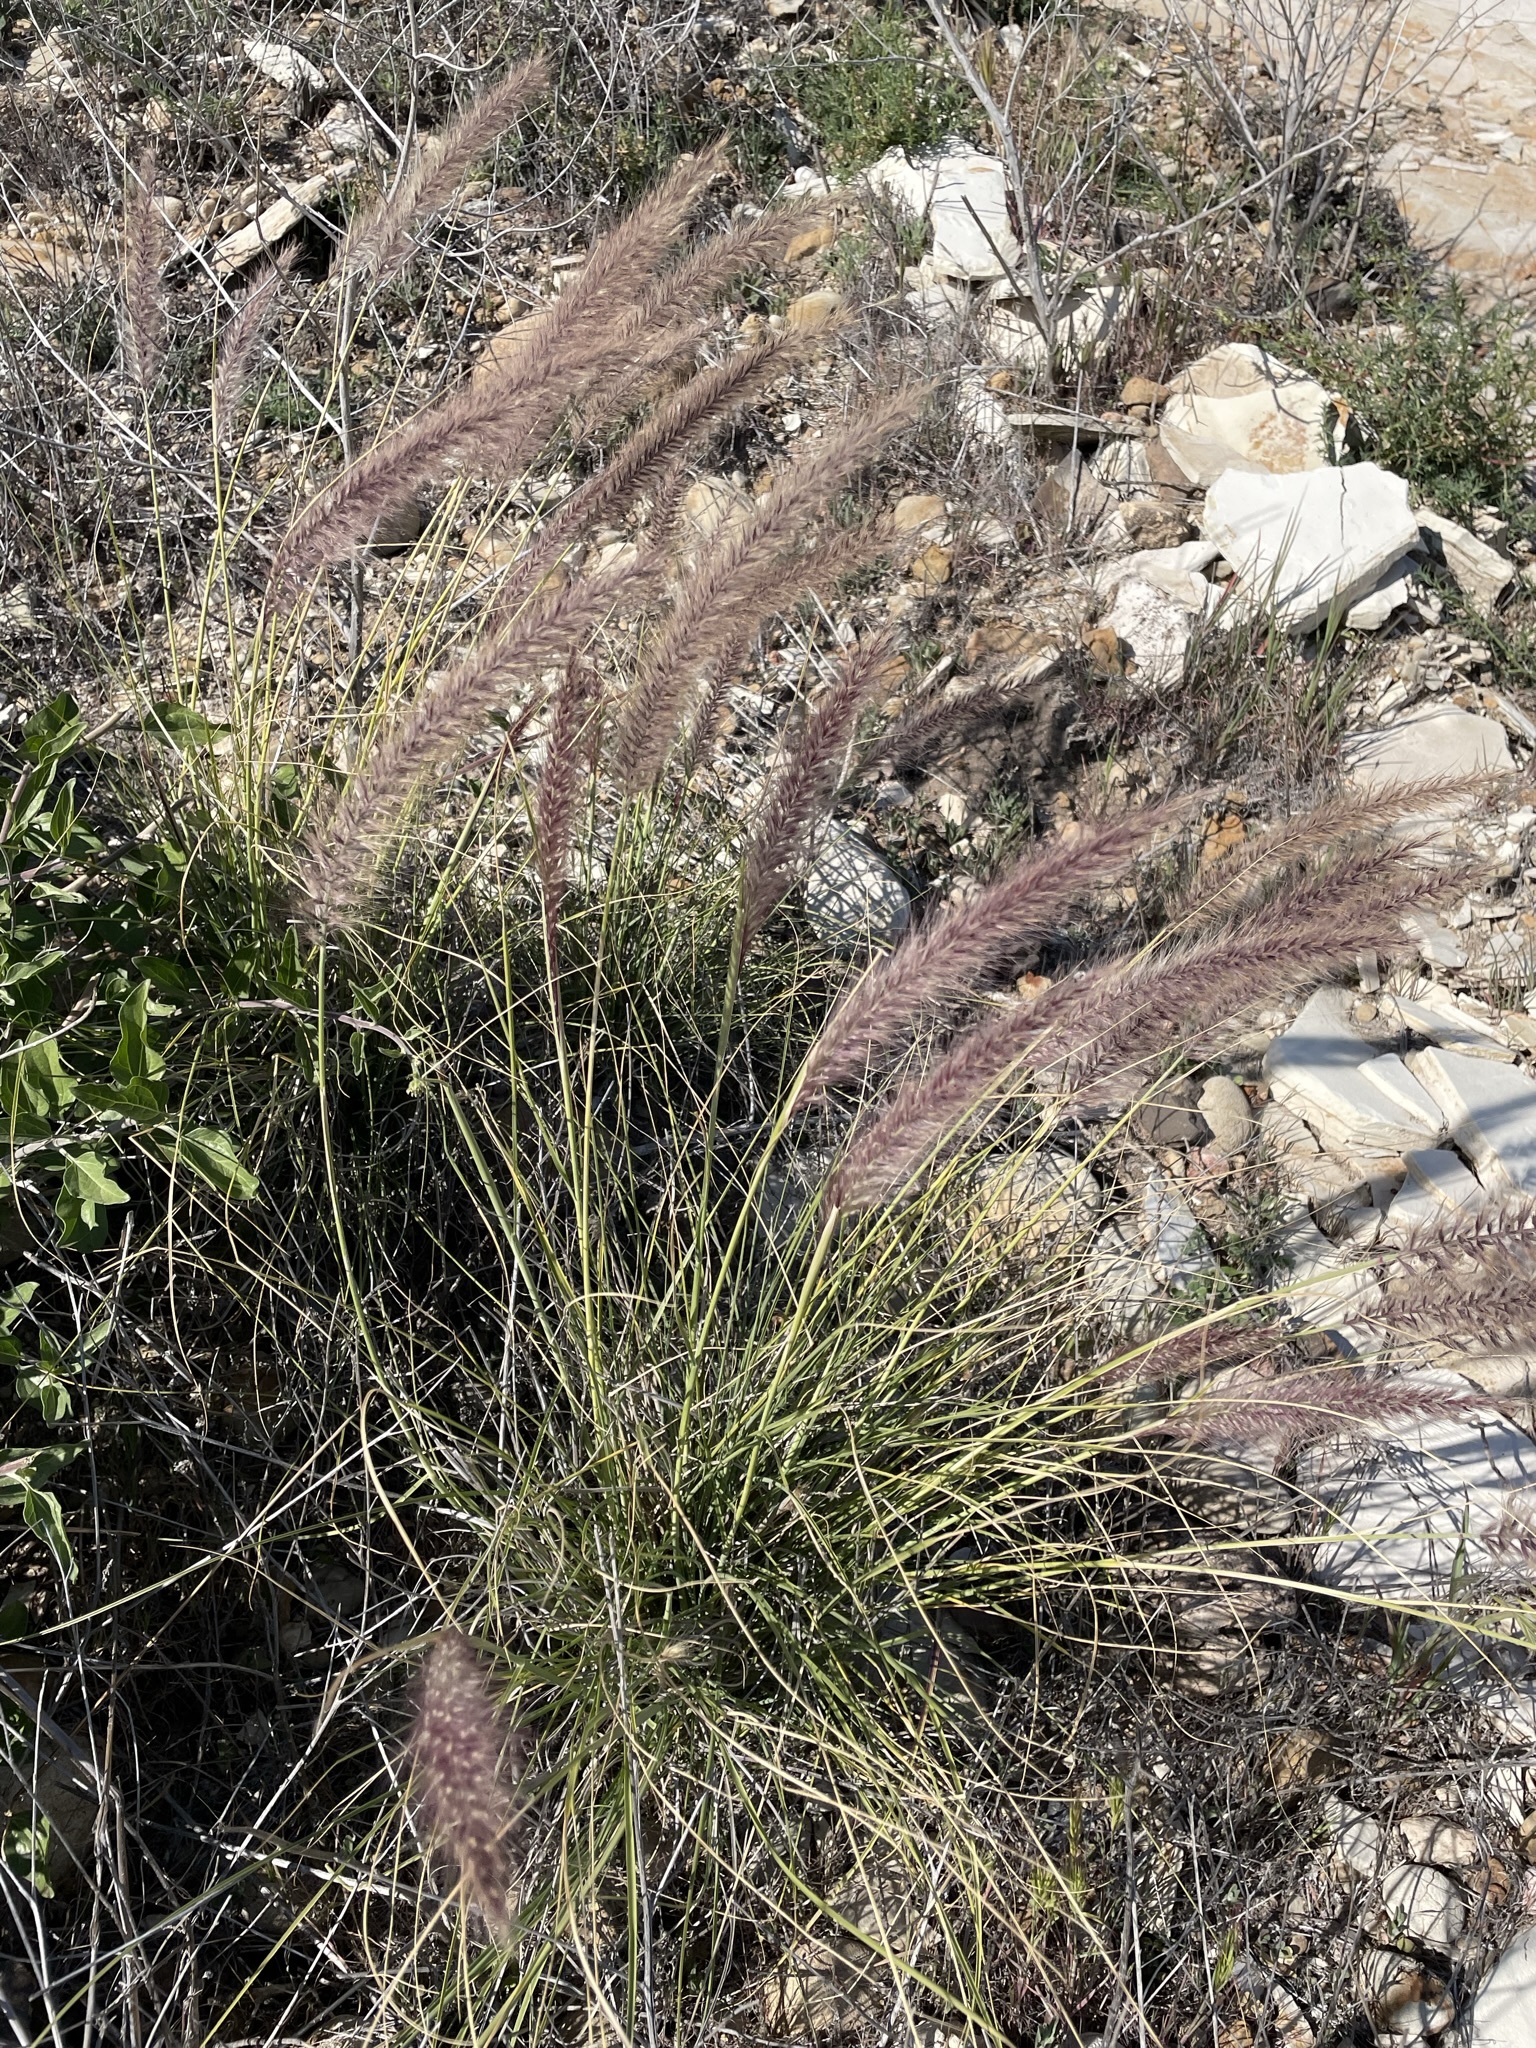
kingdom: Plantae
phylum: Tracheophyta
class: Liliopsida
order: Poales
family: Poaceae
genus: Cenchrus
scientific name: Cenchrus setaceus
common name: Crimson fountaingrass
